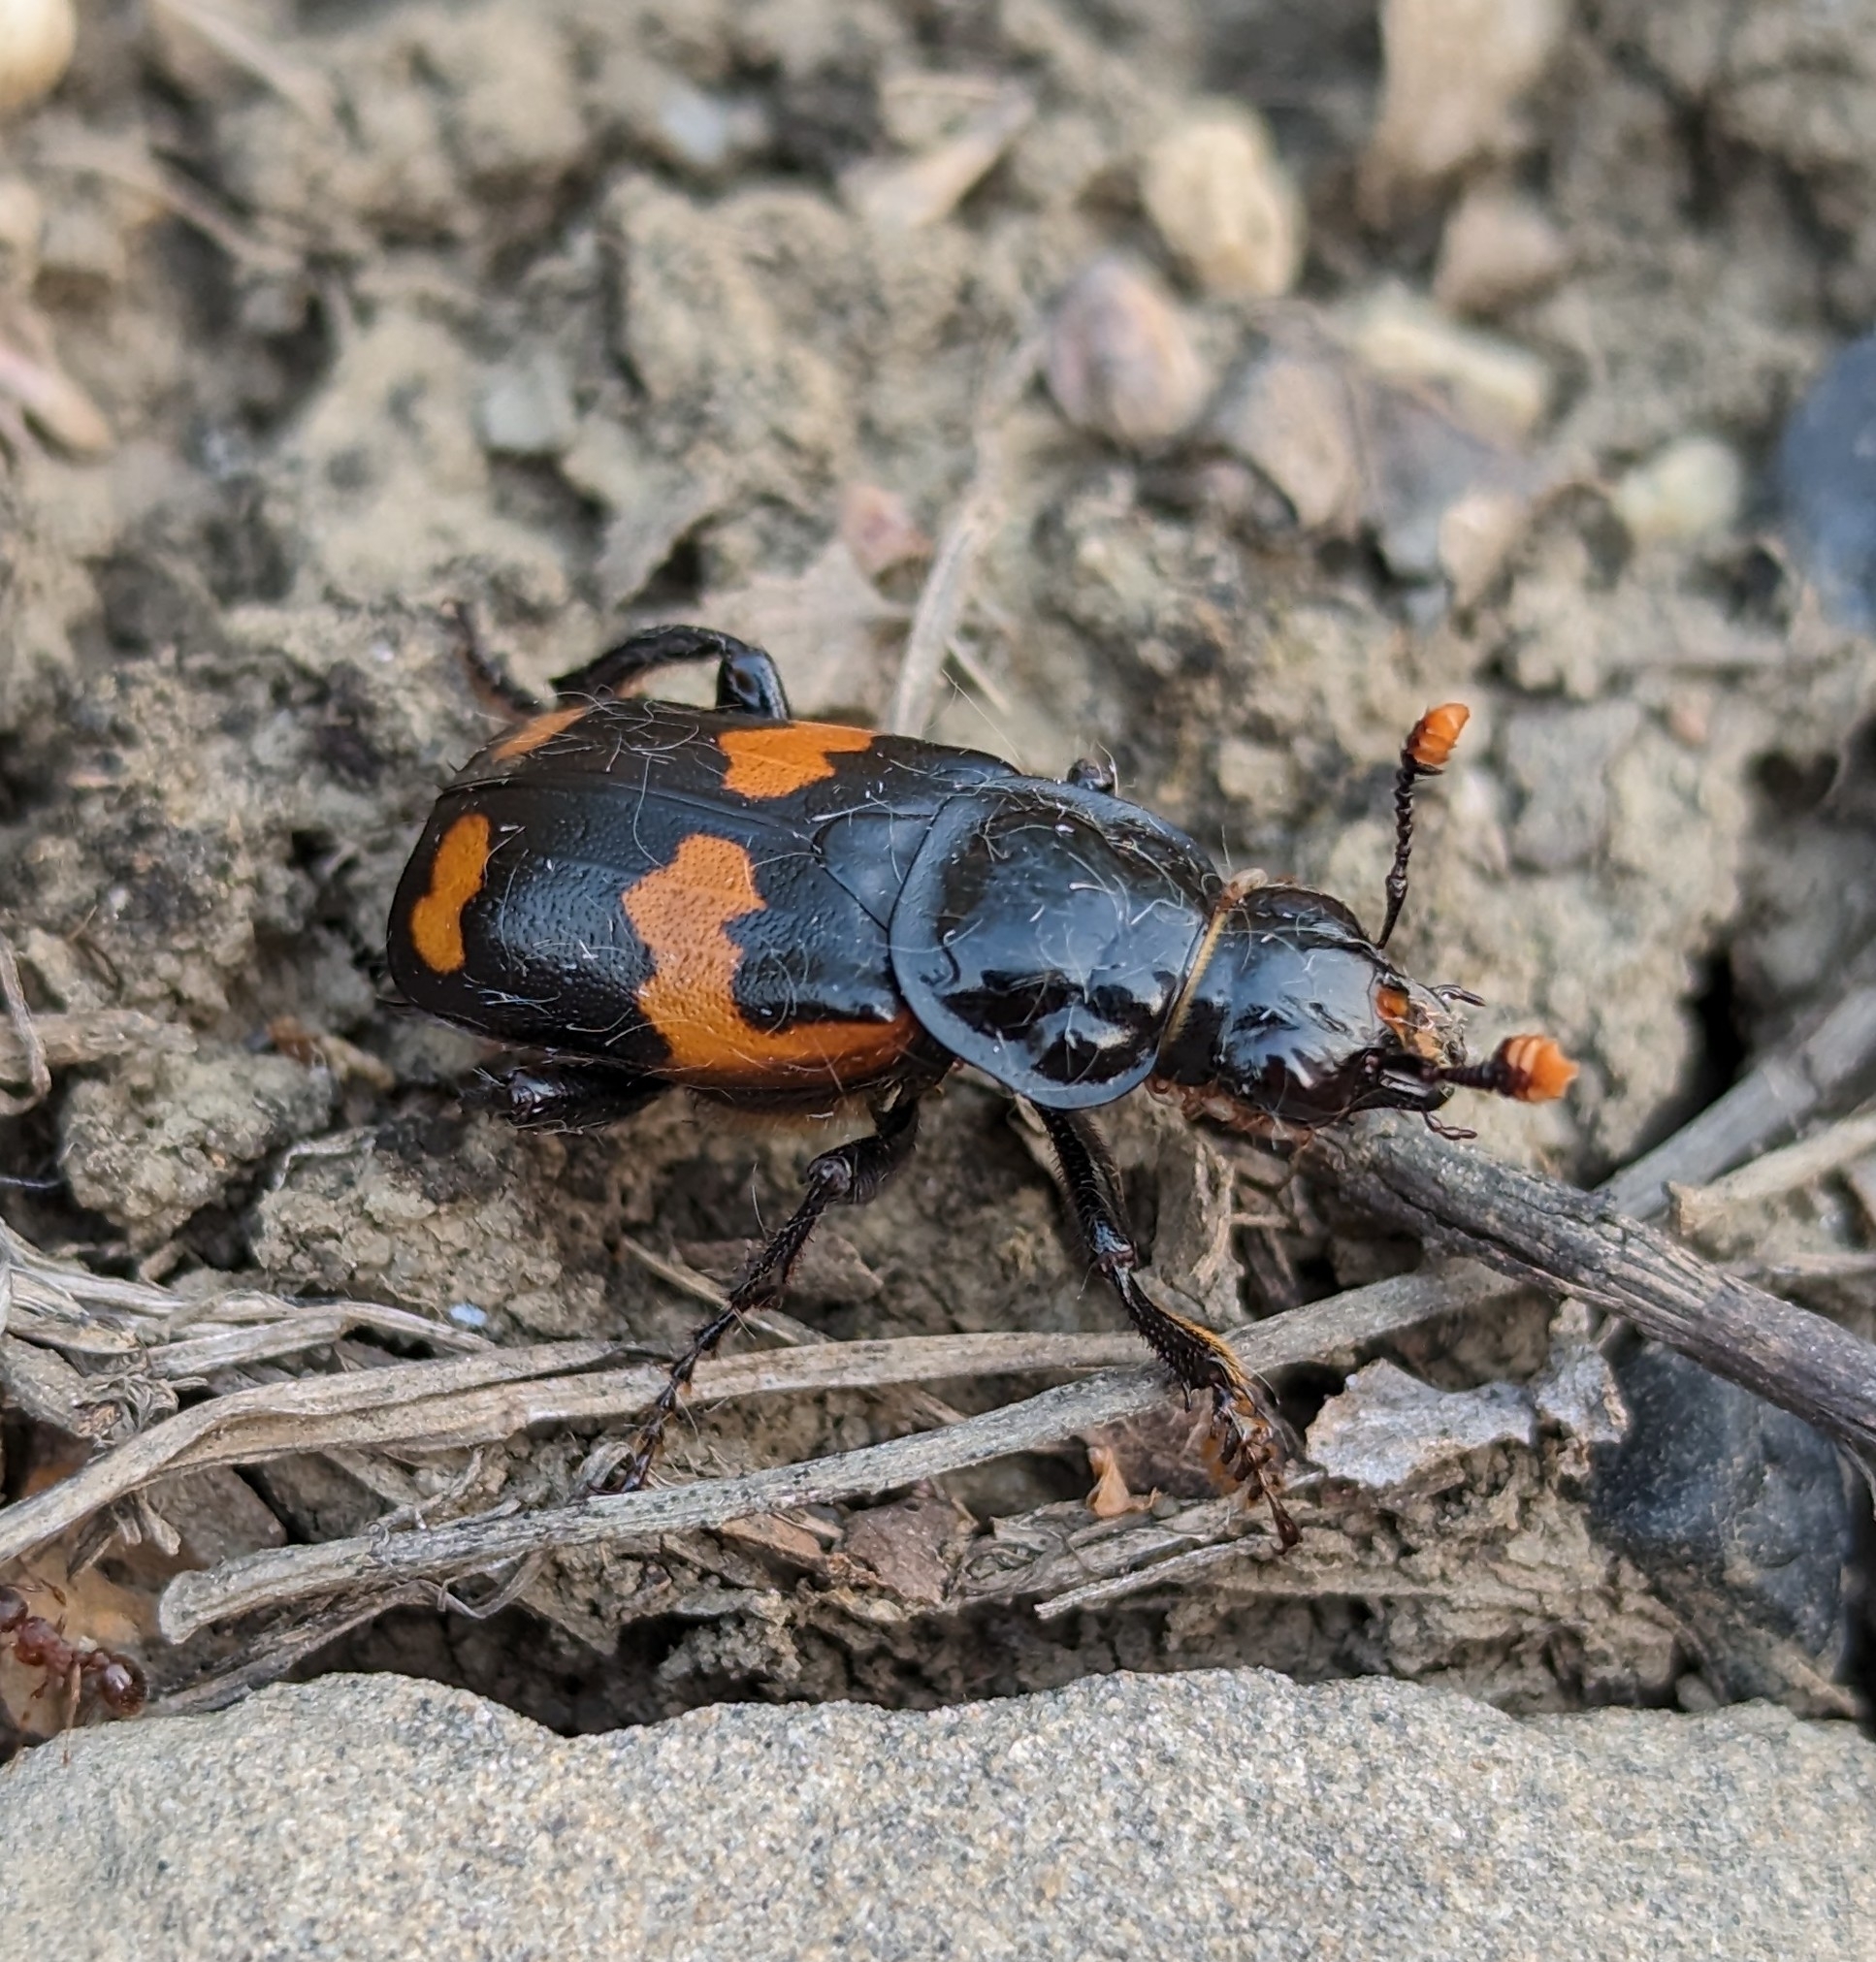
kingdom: Animalia
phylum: Arthropoda
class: Insecta
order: Coleoptera
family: Staphylinidae
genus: Nicrophorus
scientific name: Nicrophorus sayi
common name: Say's burying beetle
